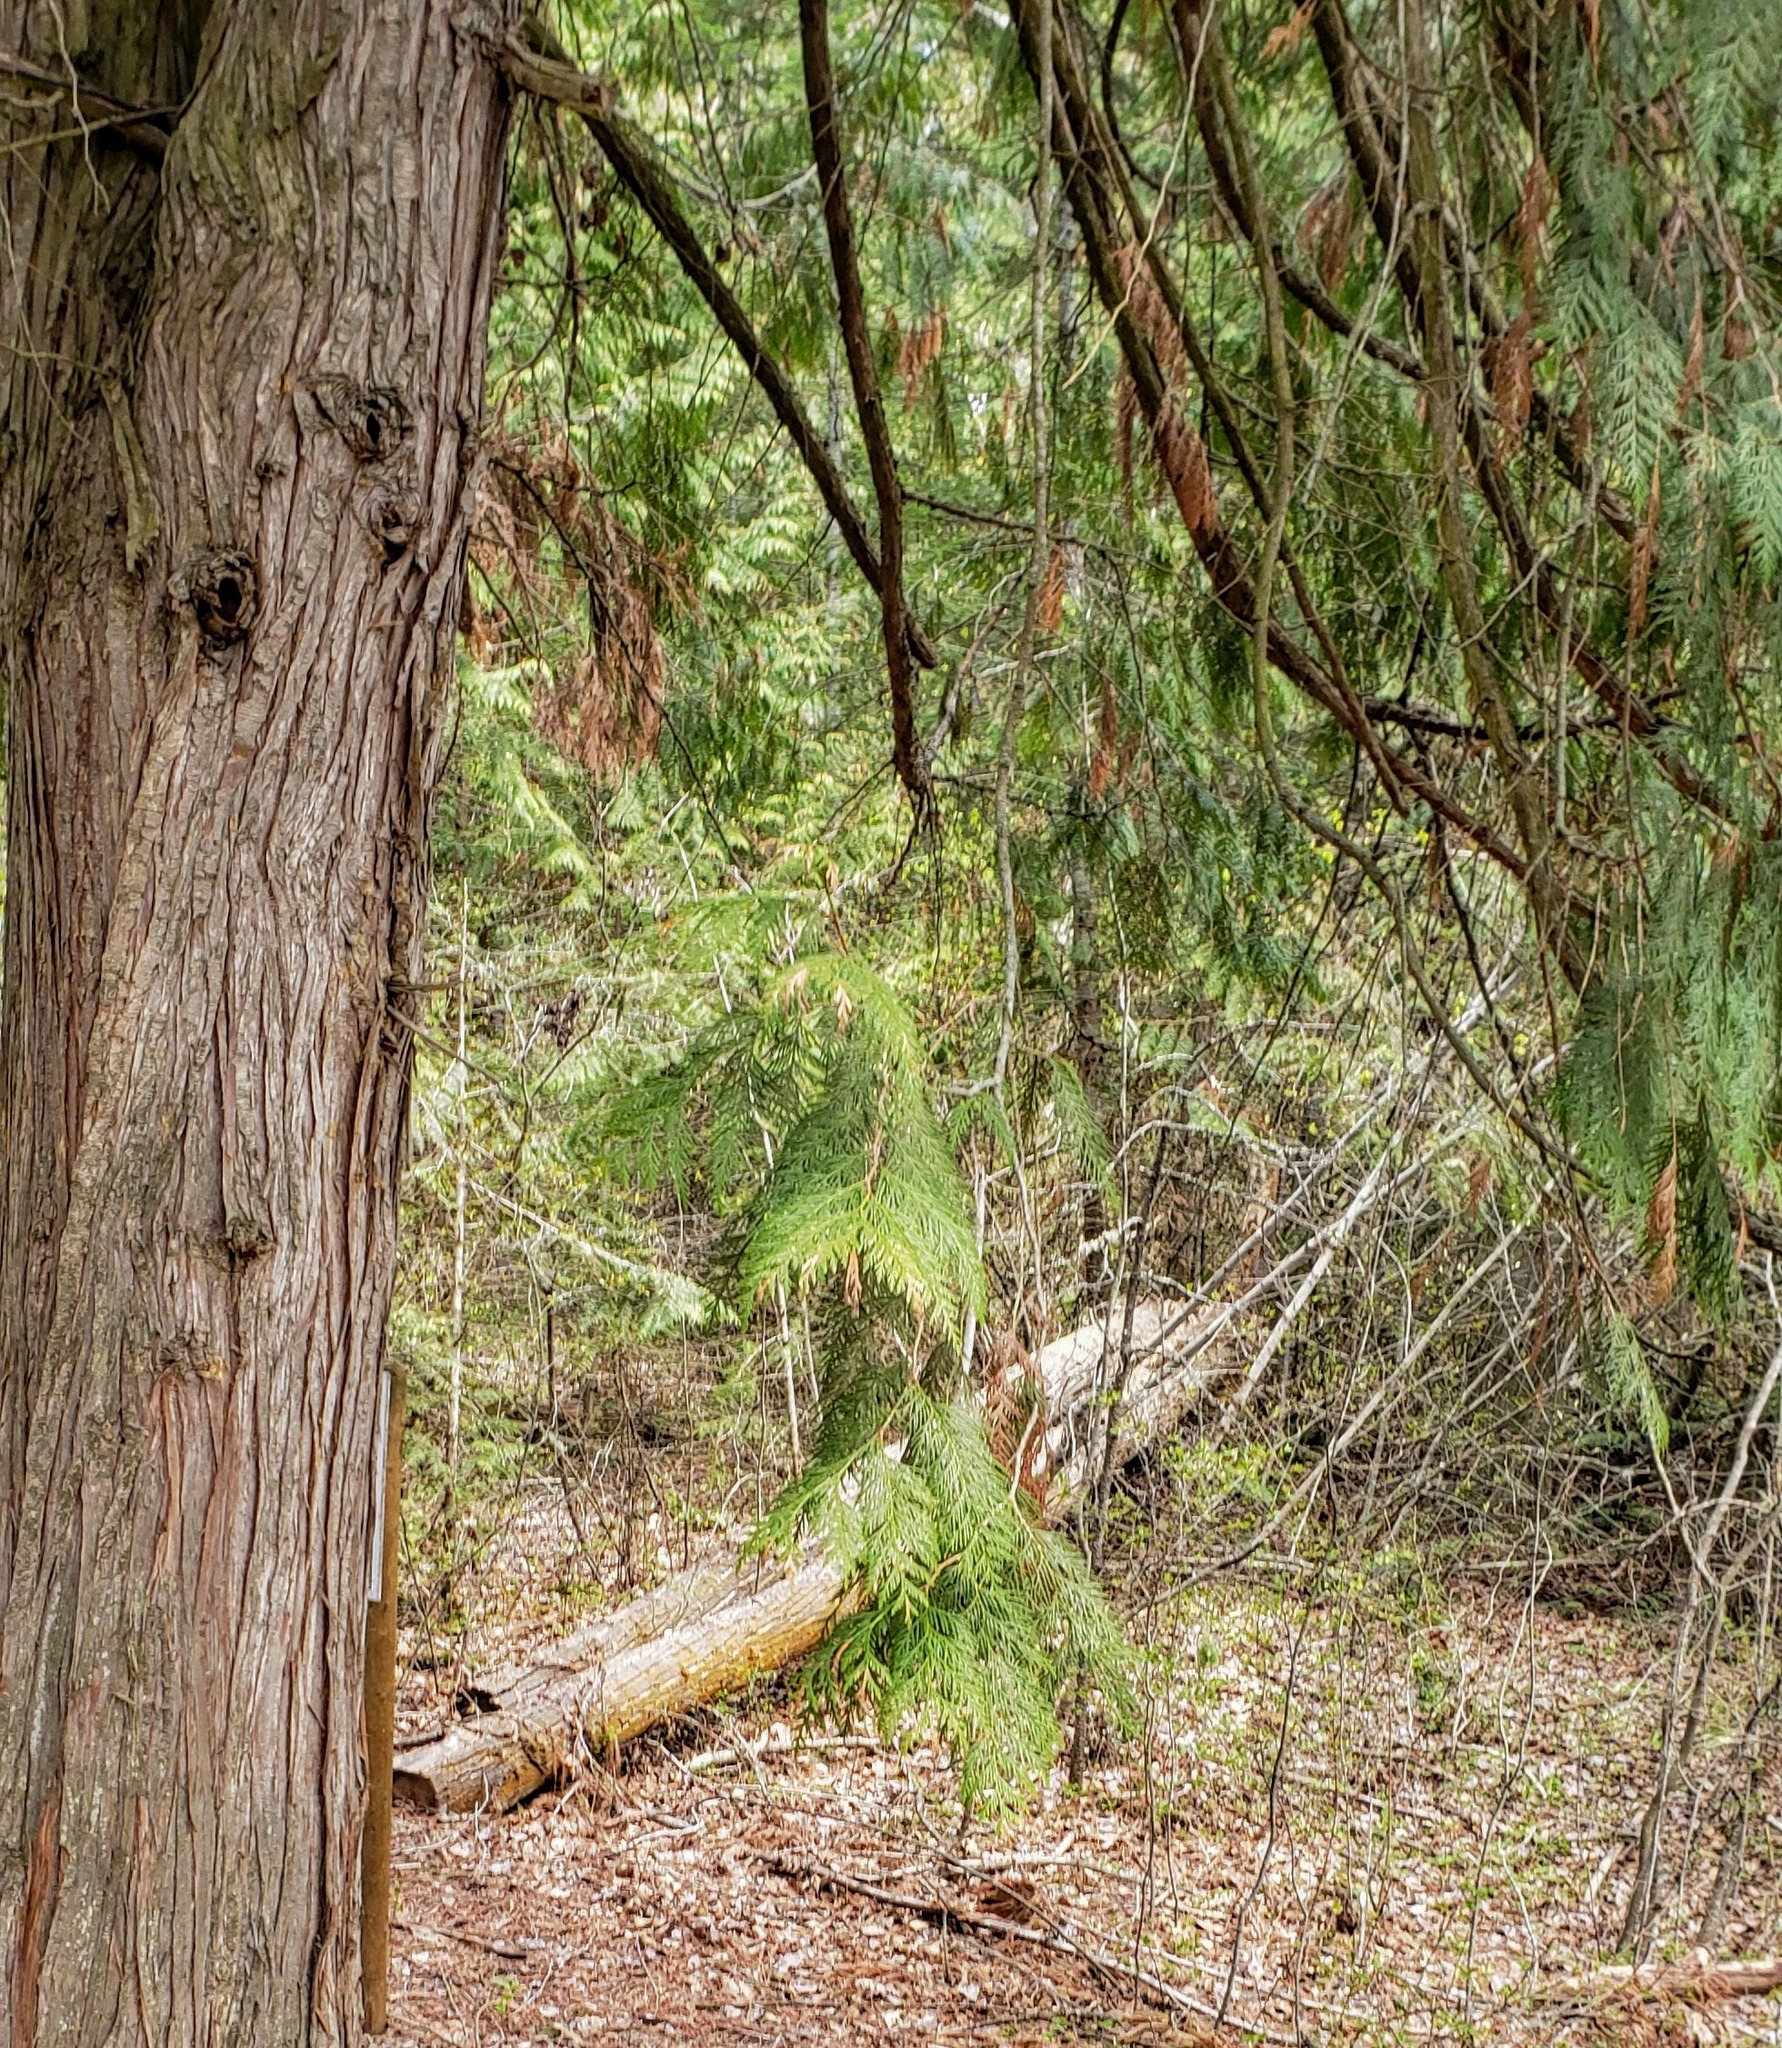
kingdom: Plantae
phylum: Tracheophyta
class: Pinopsida
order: Pinales
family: Cupressaceae
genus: Thuja
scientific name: Thuja plicata
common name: Western red-cedar
